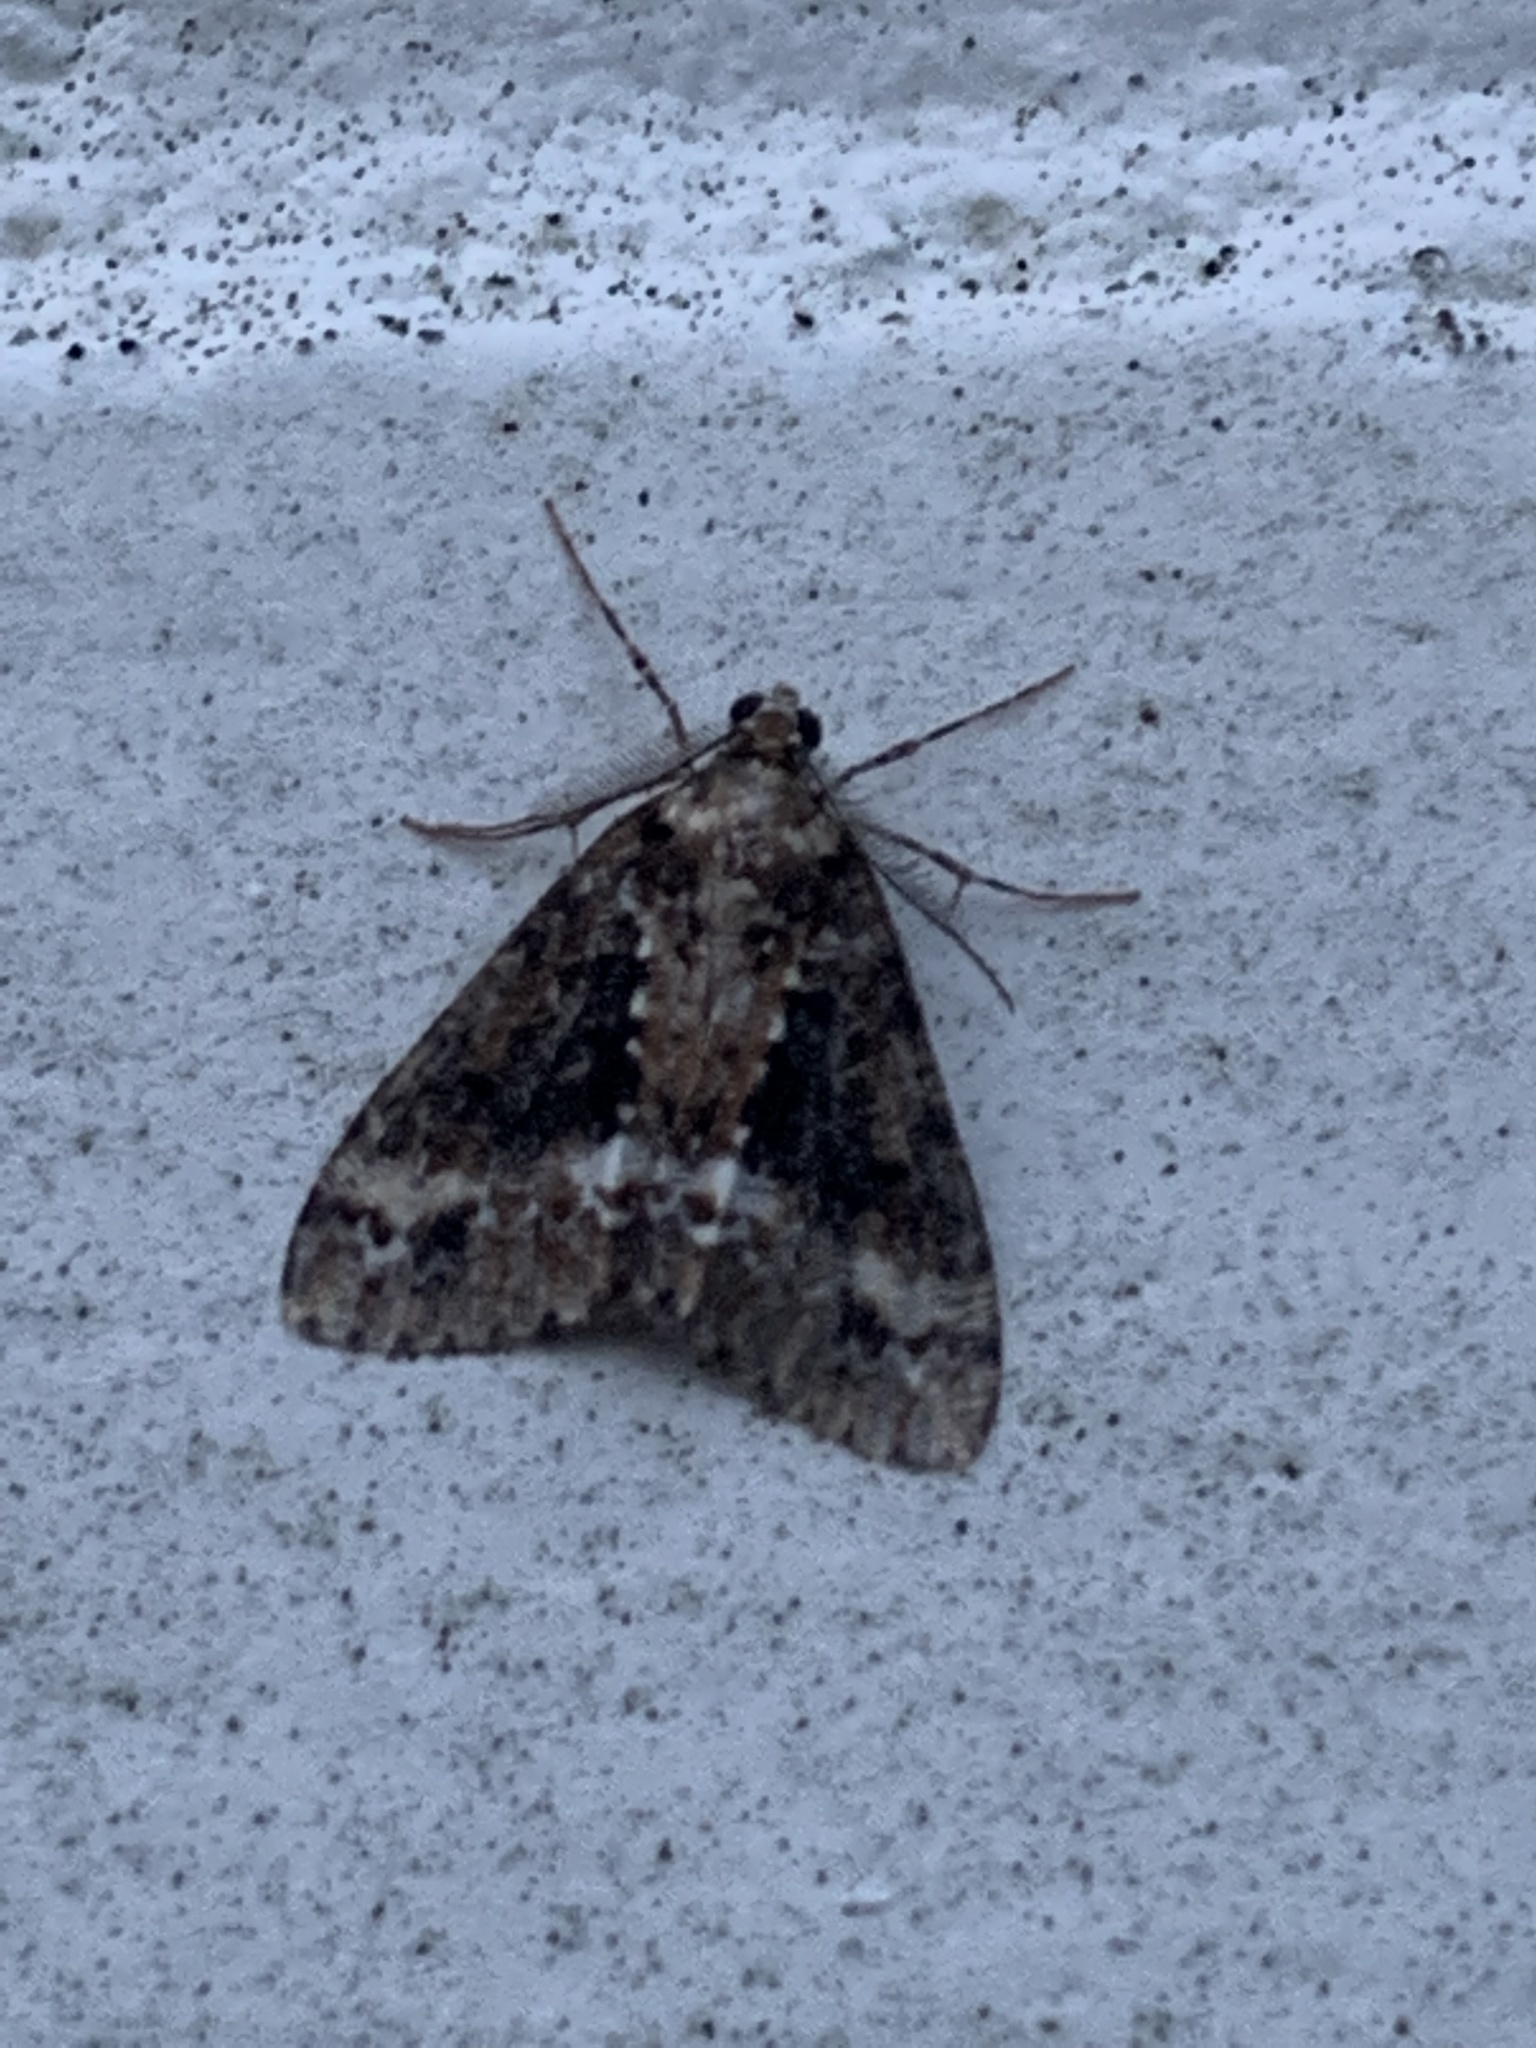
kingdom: Animalia
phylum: Arthropoda
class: Insecta
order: Lepidoptera
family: Geometridae
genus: Pseudocoremia
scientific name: Pseudocoremia leucelaea
